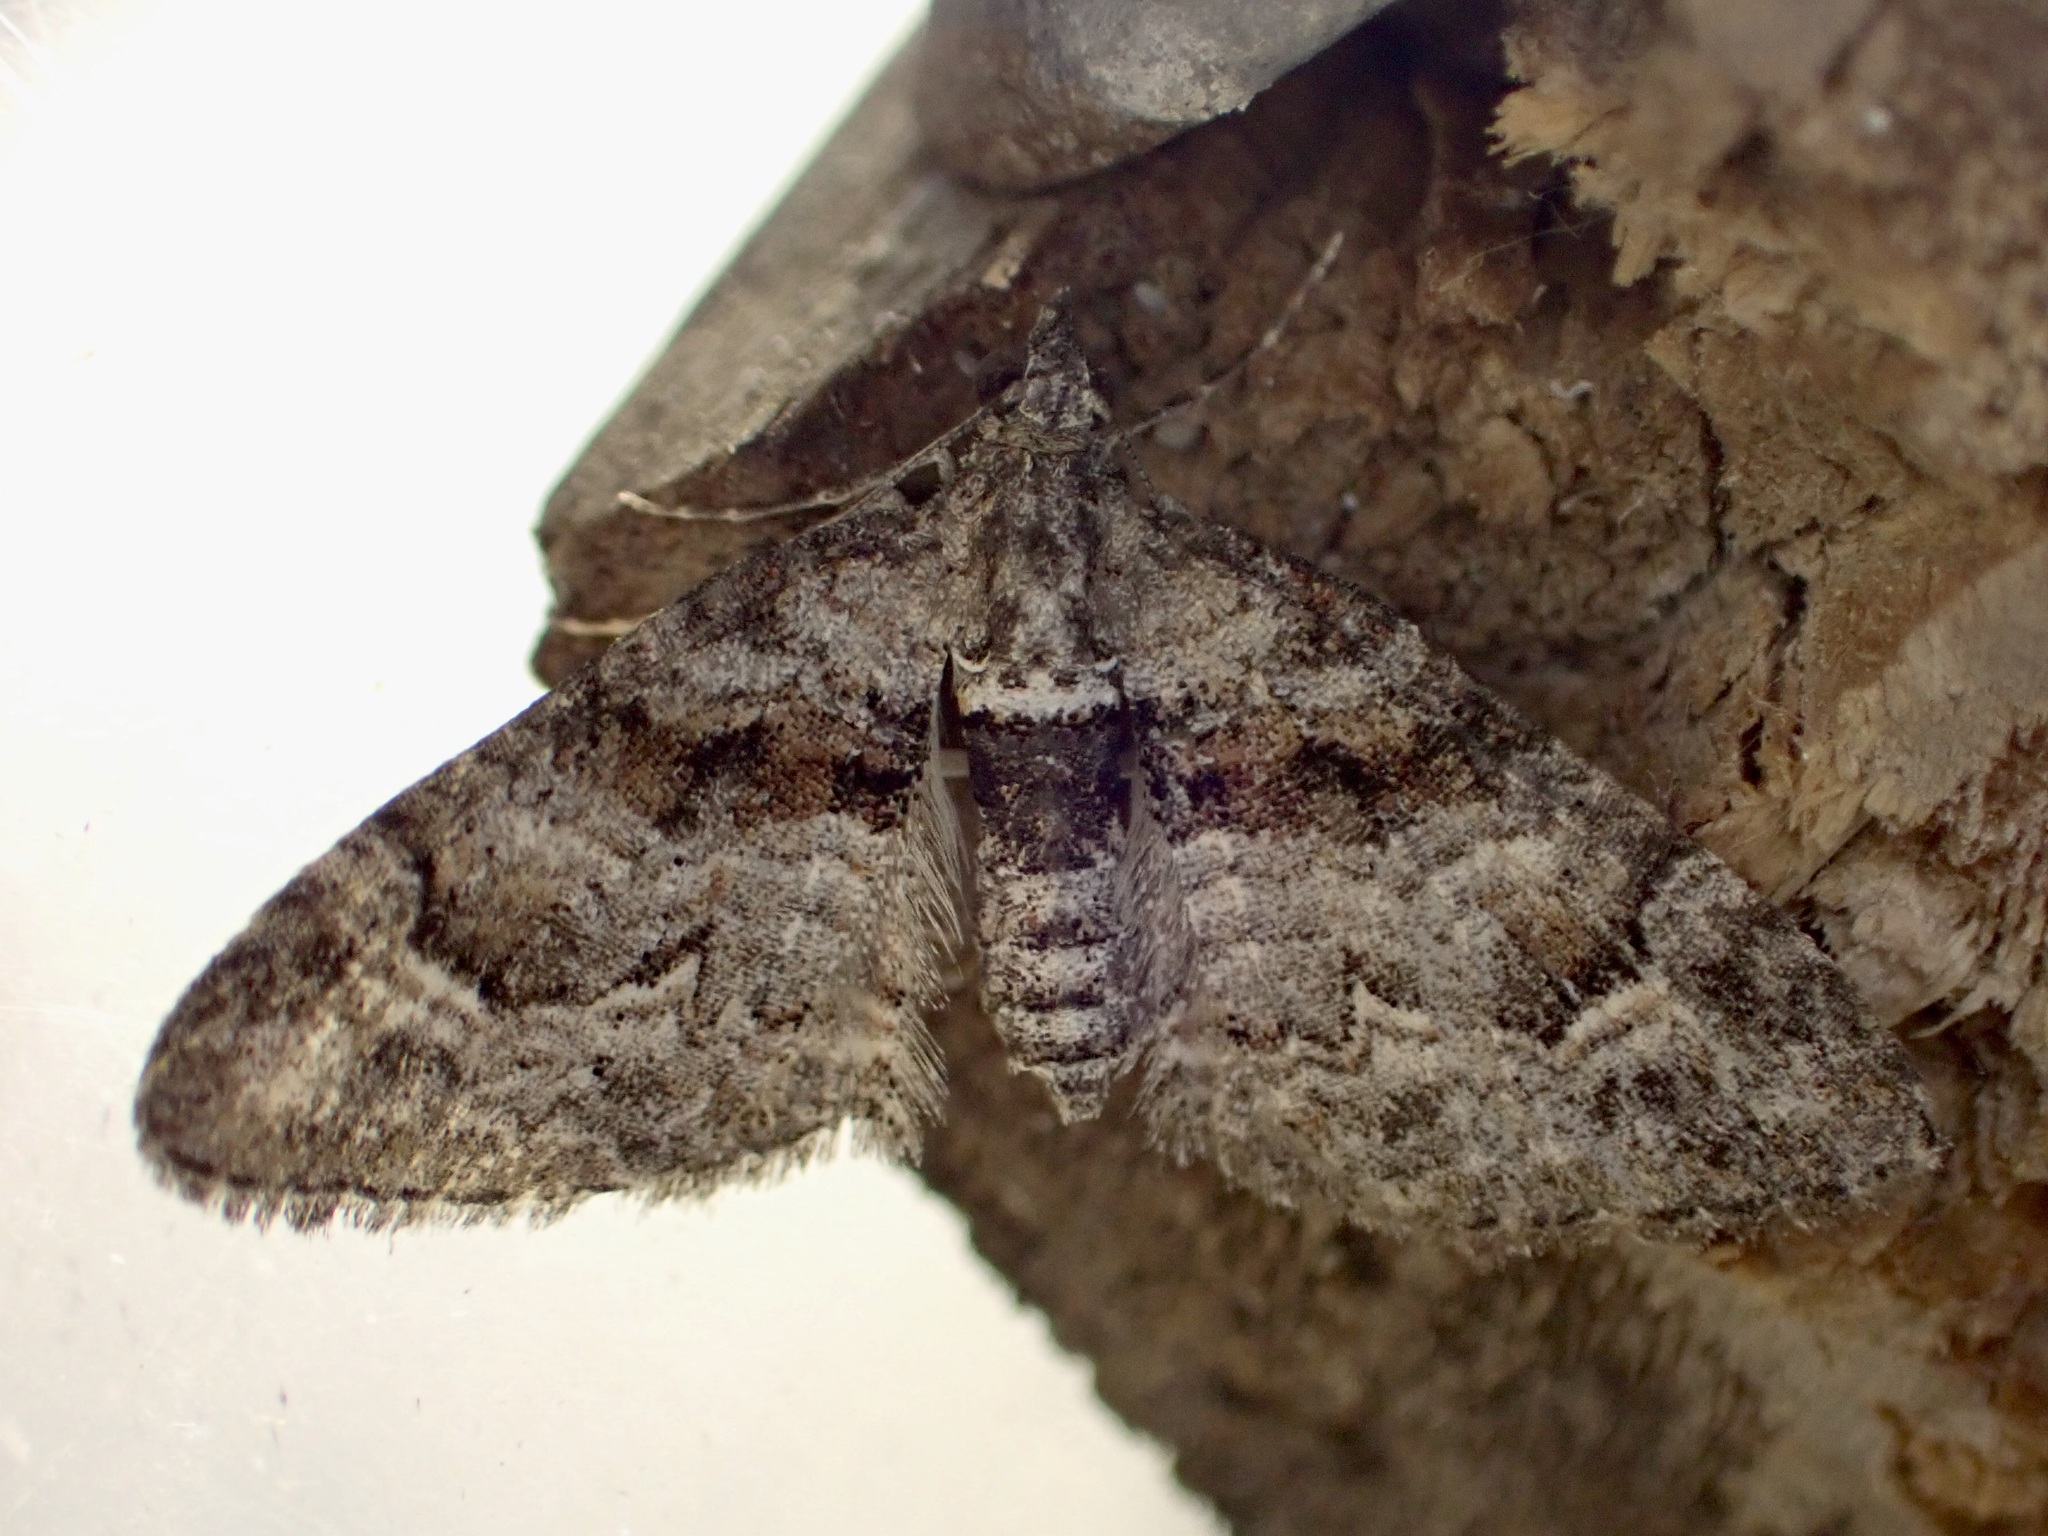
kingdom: Animalia
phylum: Arthropoda
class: Insecta
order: Lepidoptera
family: Geometridae
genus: Phrissogonus
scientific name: Phrissogonus laticostata
